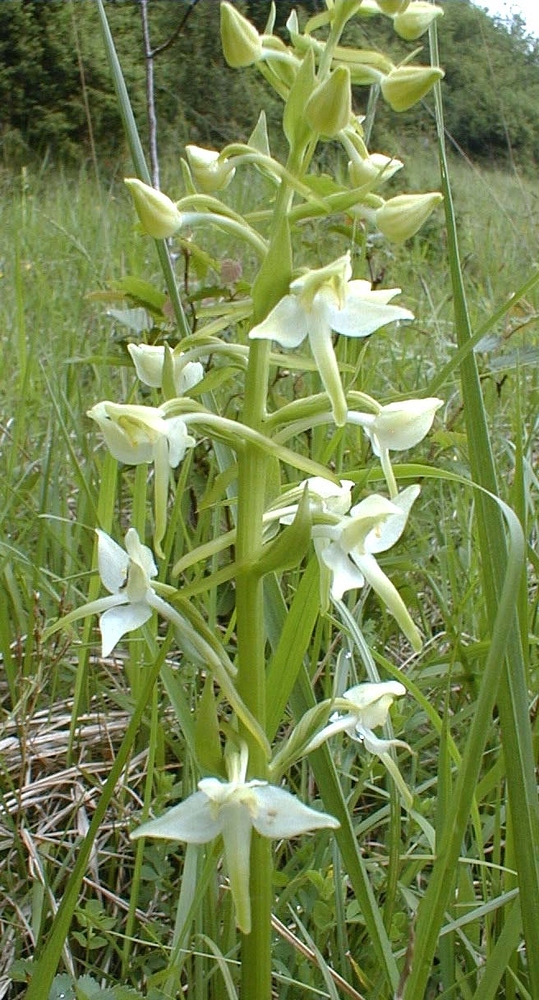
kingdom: Plantae
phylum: Tracheophyta
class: Liliopsida
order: Asparagales
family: Orchidaceae
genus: Platanthera
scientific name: Platanthera chlorantha
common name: Greater butterfly-orchid
